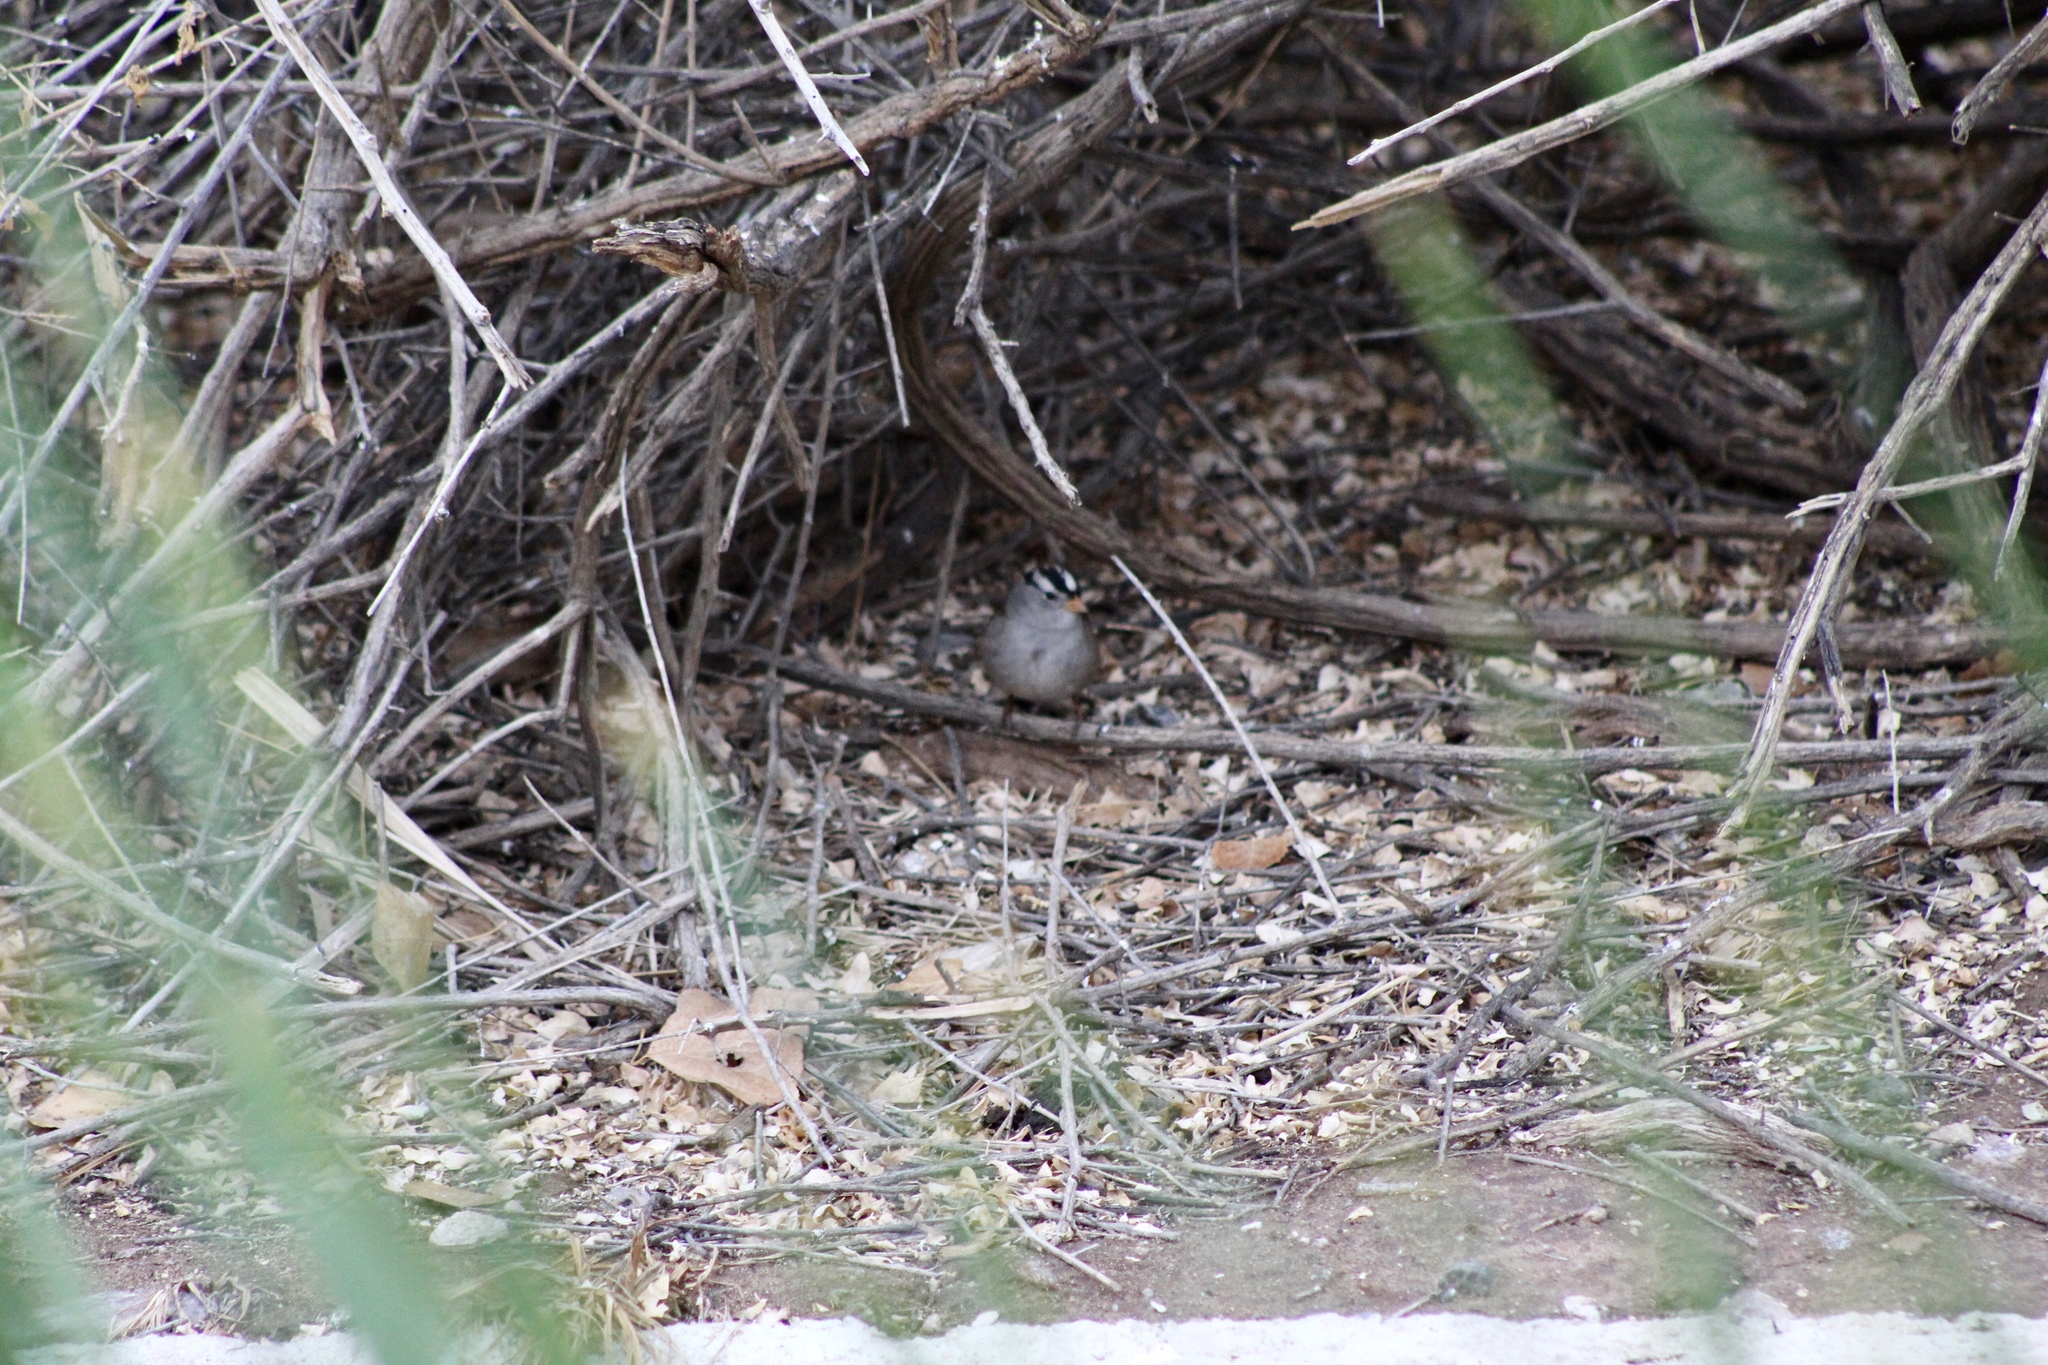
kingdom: Animalia
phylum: Chordata
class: Aves
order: Passeriformes
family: Passerellidae
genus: Zonotrichia
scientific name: Zonotrichia leucophrys
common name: White-crowned sparrow
